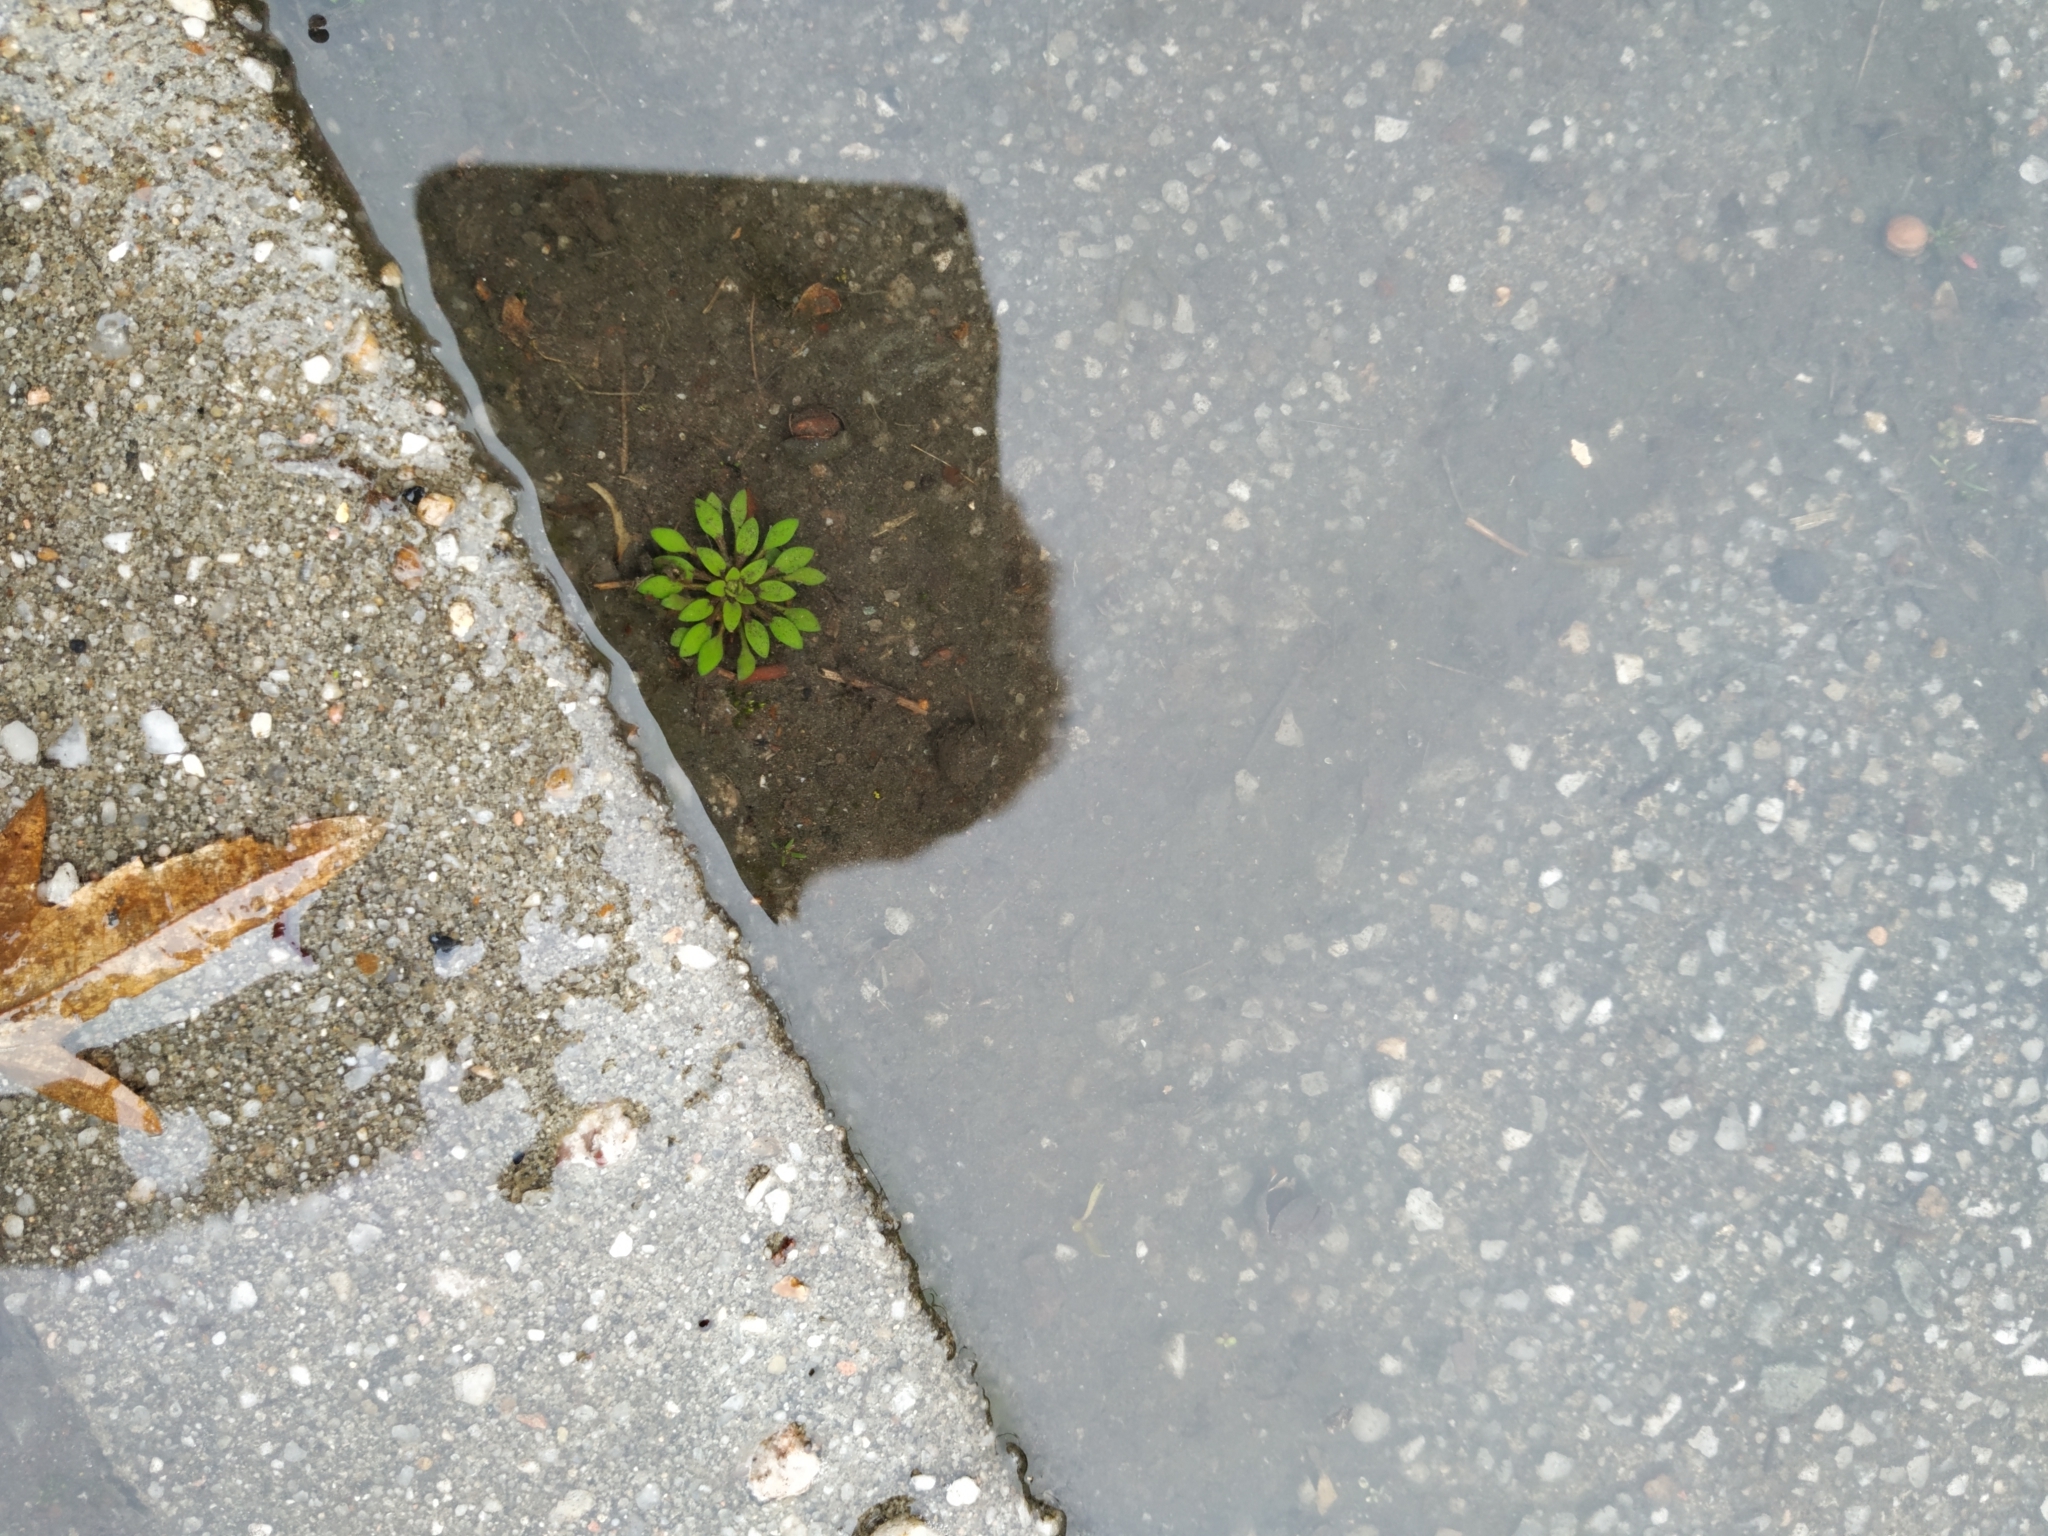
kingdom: Plantae
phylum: Tracheophyta
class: Magnoliopsida
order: Brassicales
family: Brassicaceae
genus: Draba
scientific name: Draba verna
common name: Spring draba
